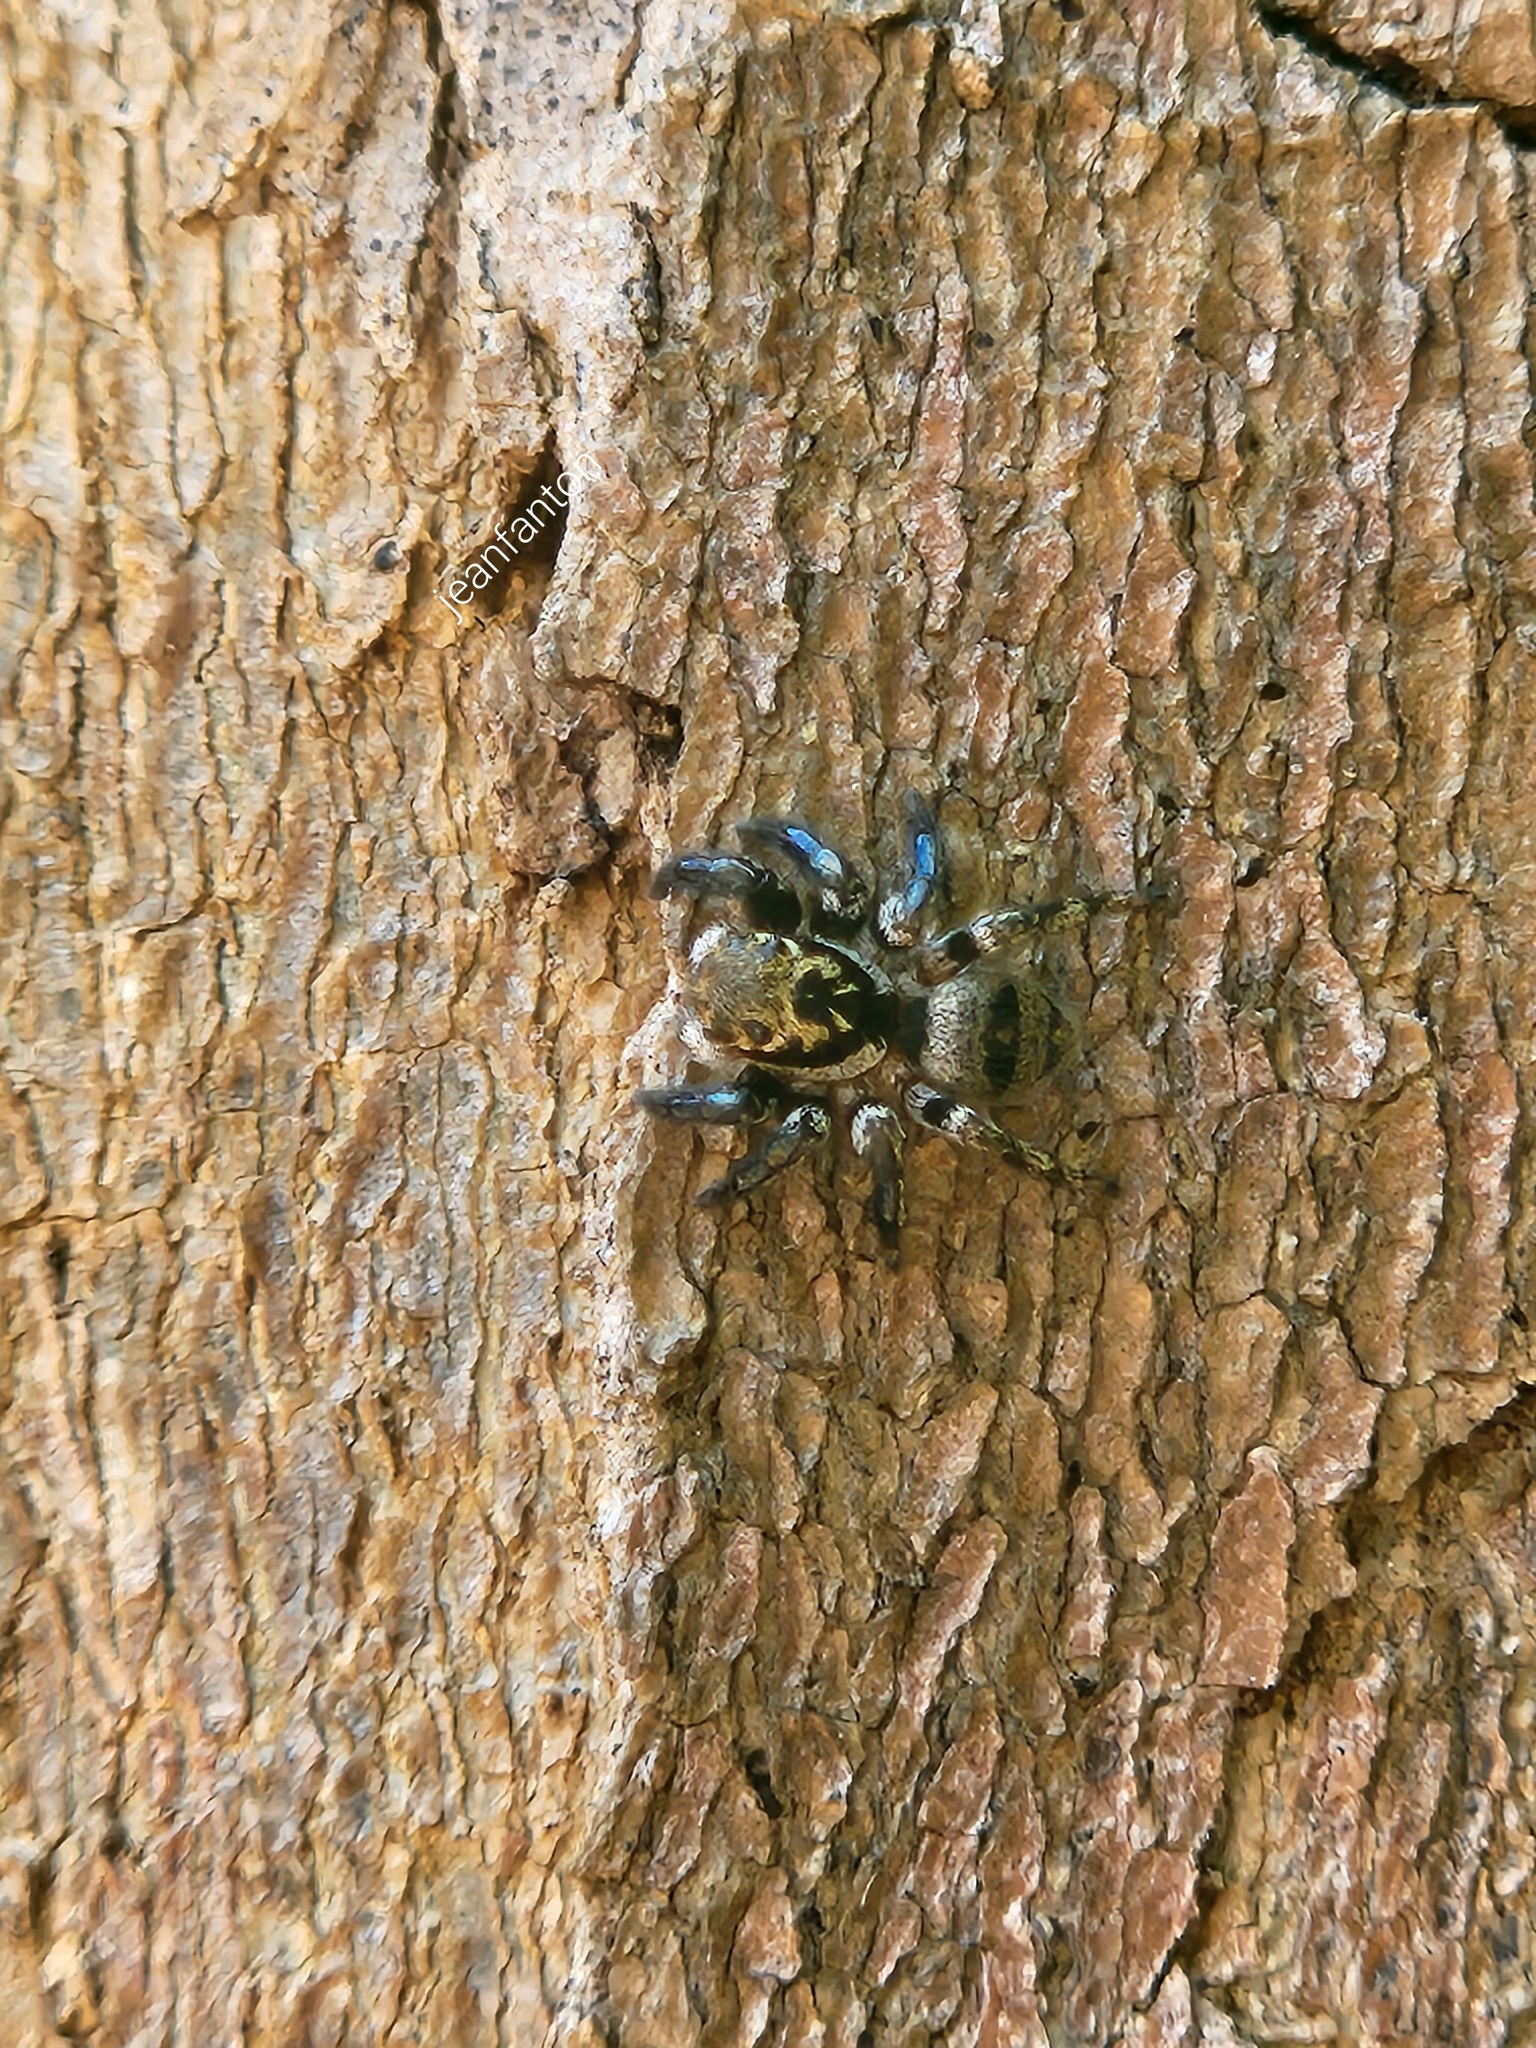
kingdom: Animalia
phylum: Arthropoda
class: Arachnida
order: Araneae
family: Salticidae
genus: Corythalia
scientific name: Corythalia conferta
